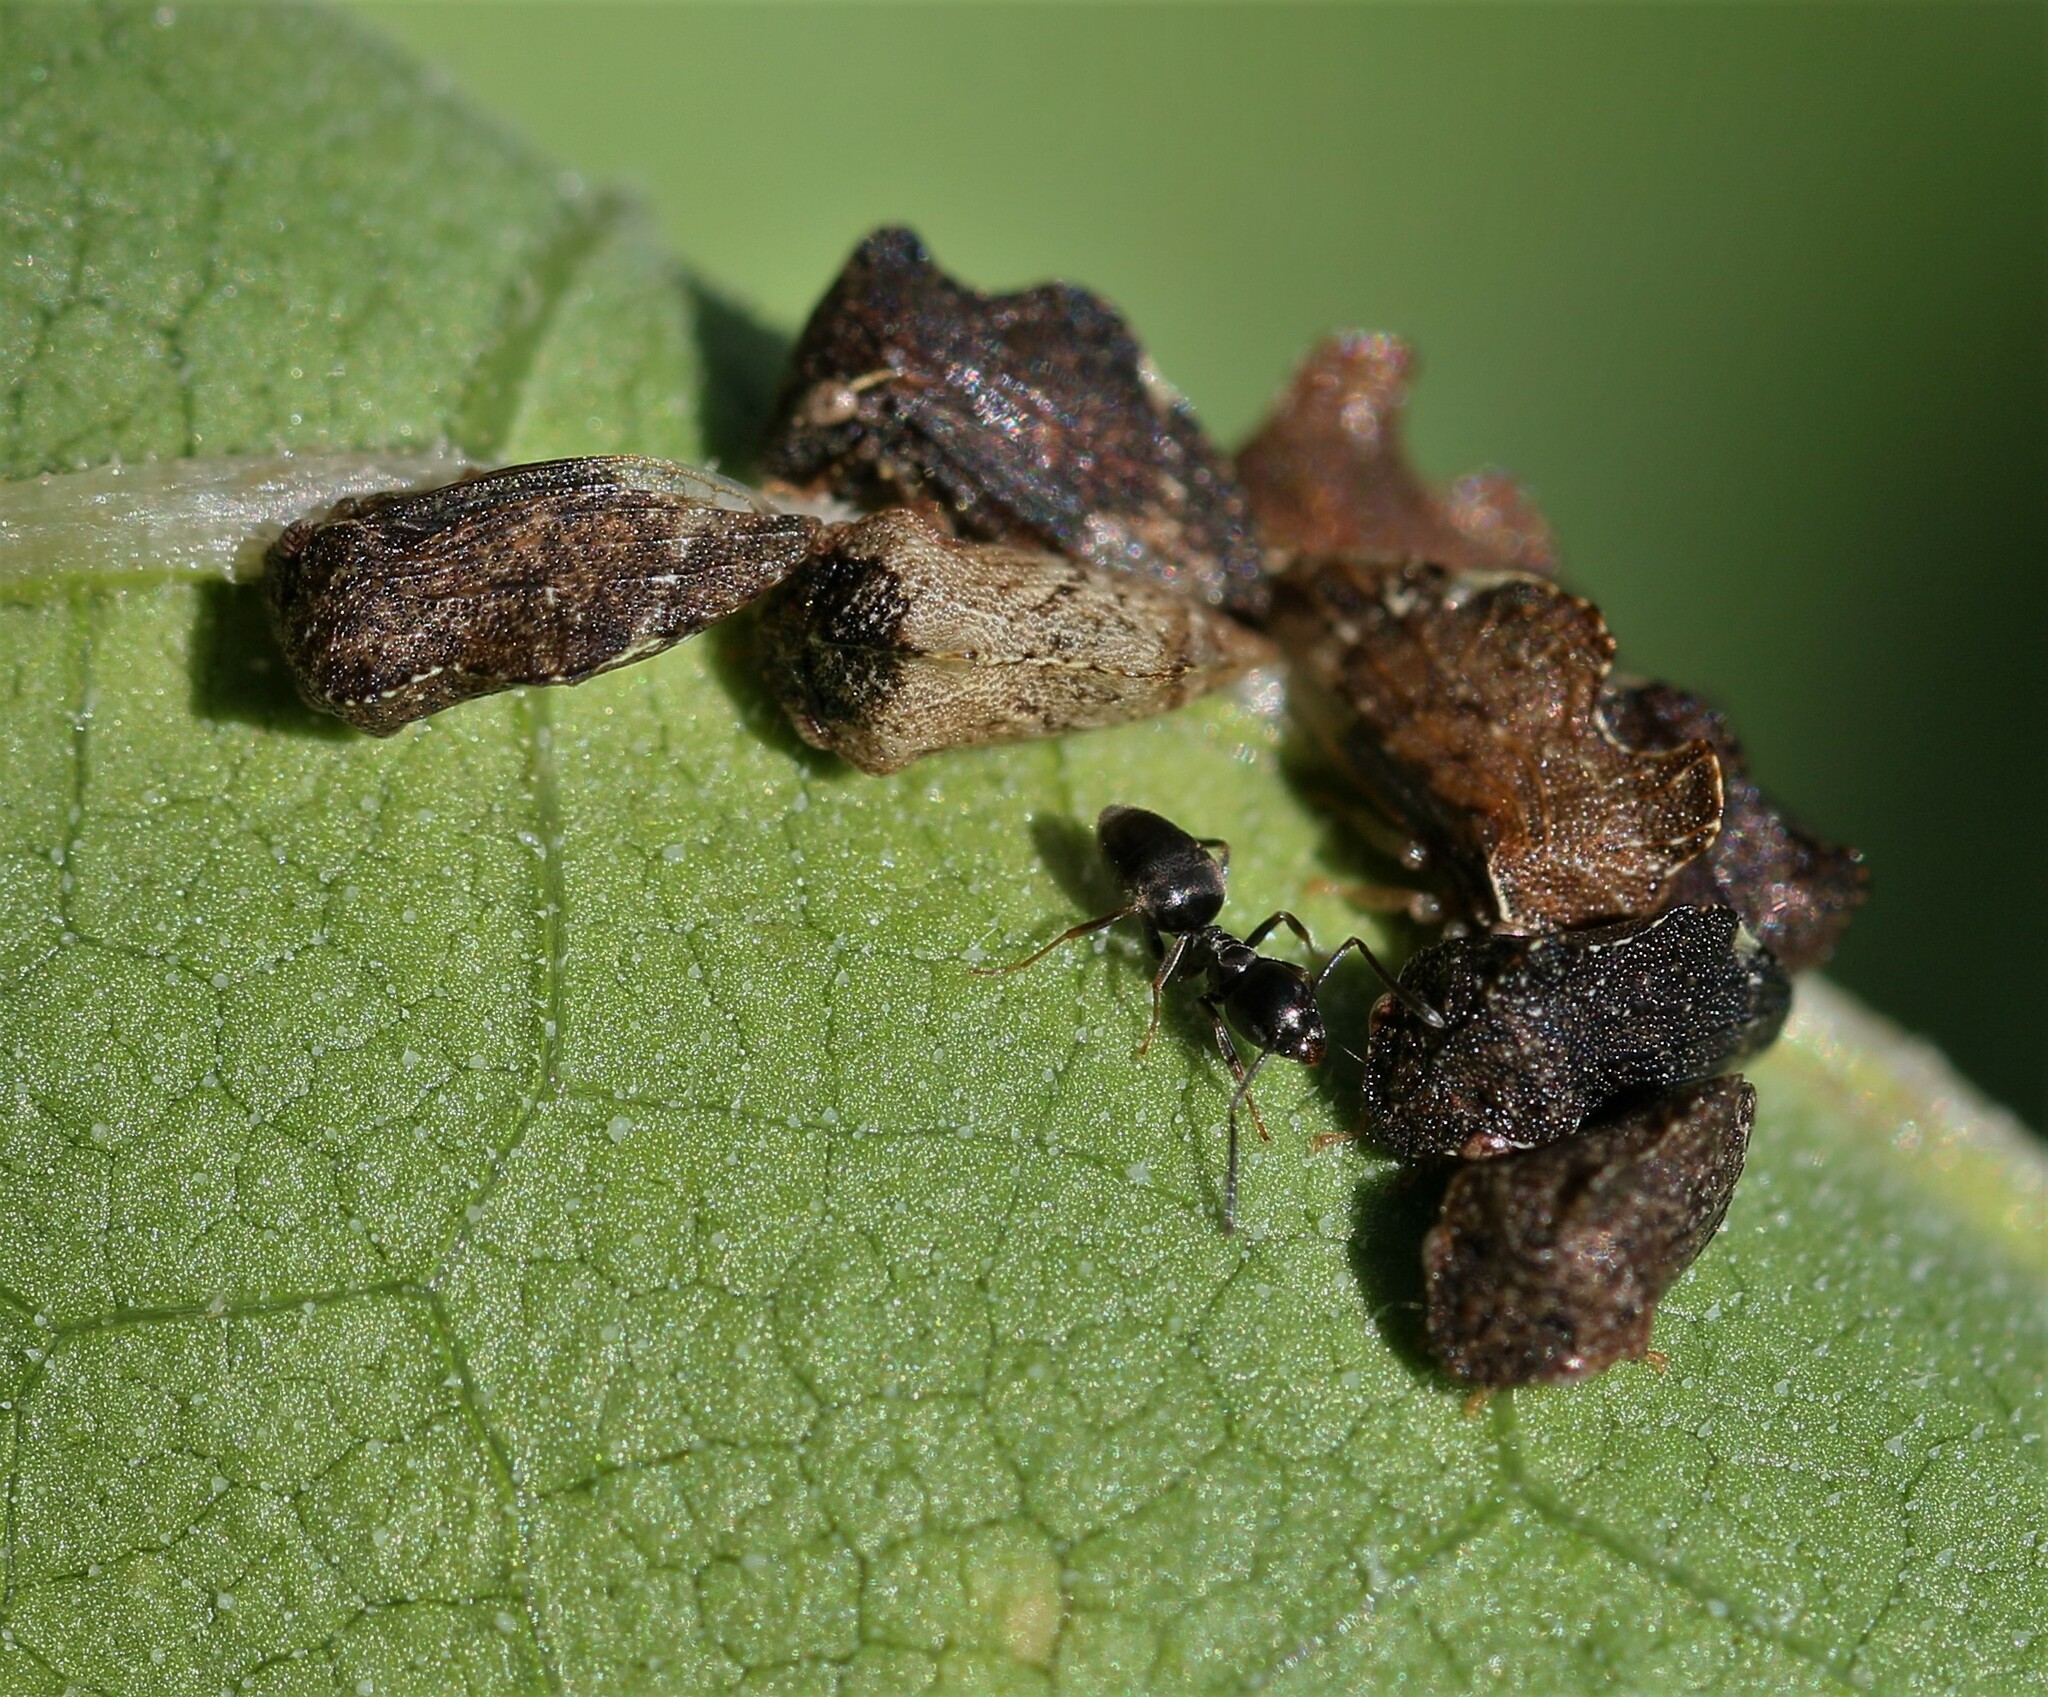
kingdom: Animalia
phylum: Arthropoda
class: Insecta
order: Hemiptera
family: Membracidae
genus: Entylia
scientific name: Entylia carinata
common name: Keeled treehopper
